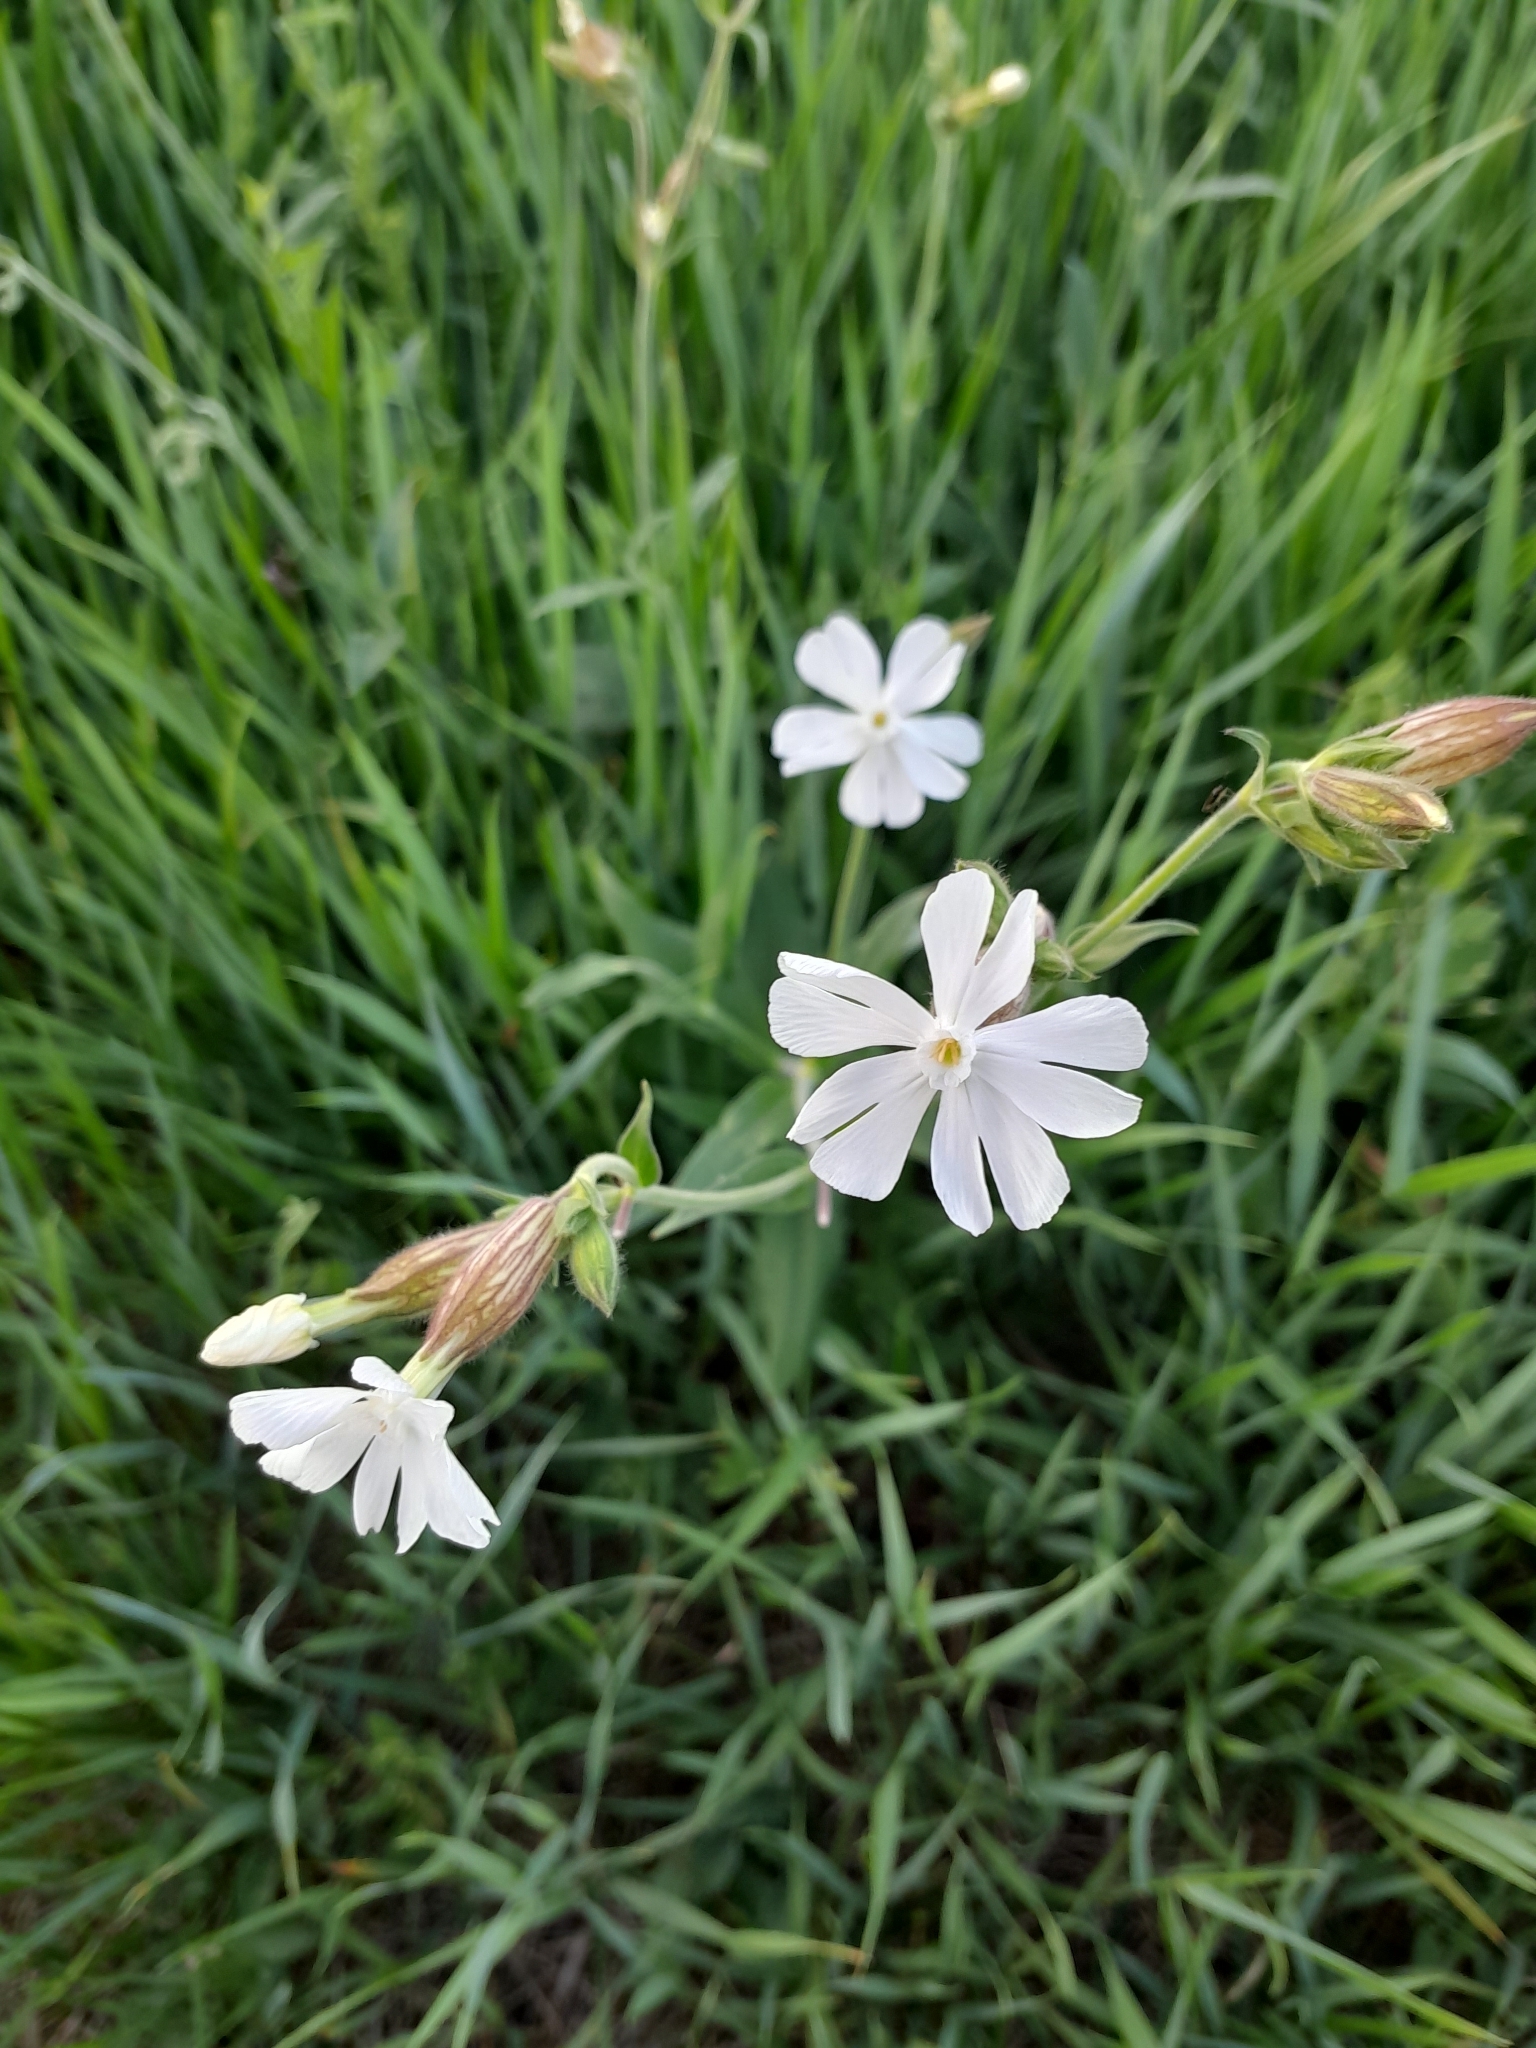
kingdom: Plantae
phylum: Tracheophyta
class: Magnoliopsida
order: Caryophyllales
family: Caryophyllaceae
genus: Silene
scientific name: Silene latifolia
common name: White campion
